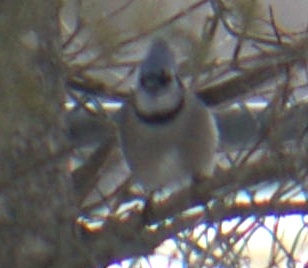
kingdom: Animalia
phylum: Chordata
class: Aves
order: Passeriformes
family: Corvidae
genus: Cyanocitta
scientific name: Cyanocitta cristata
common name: Blue jay
